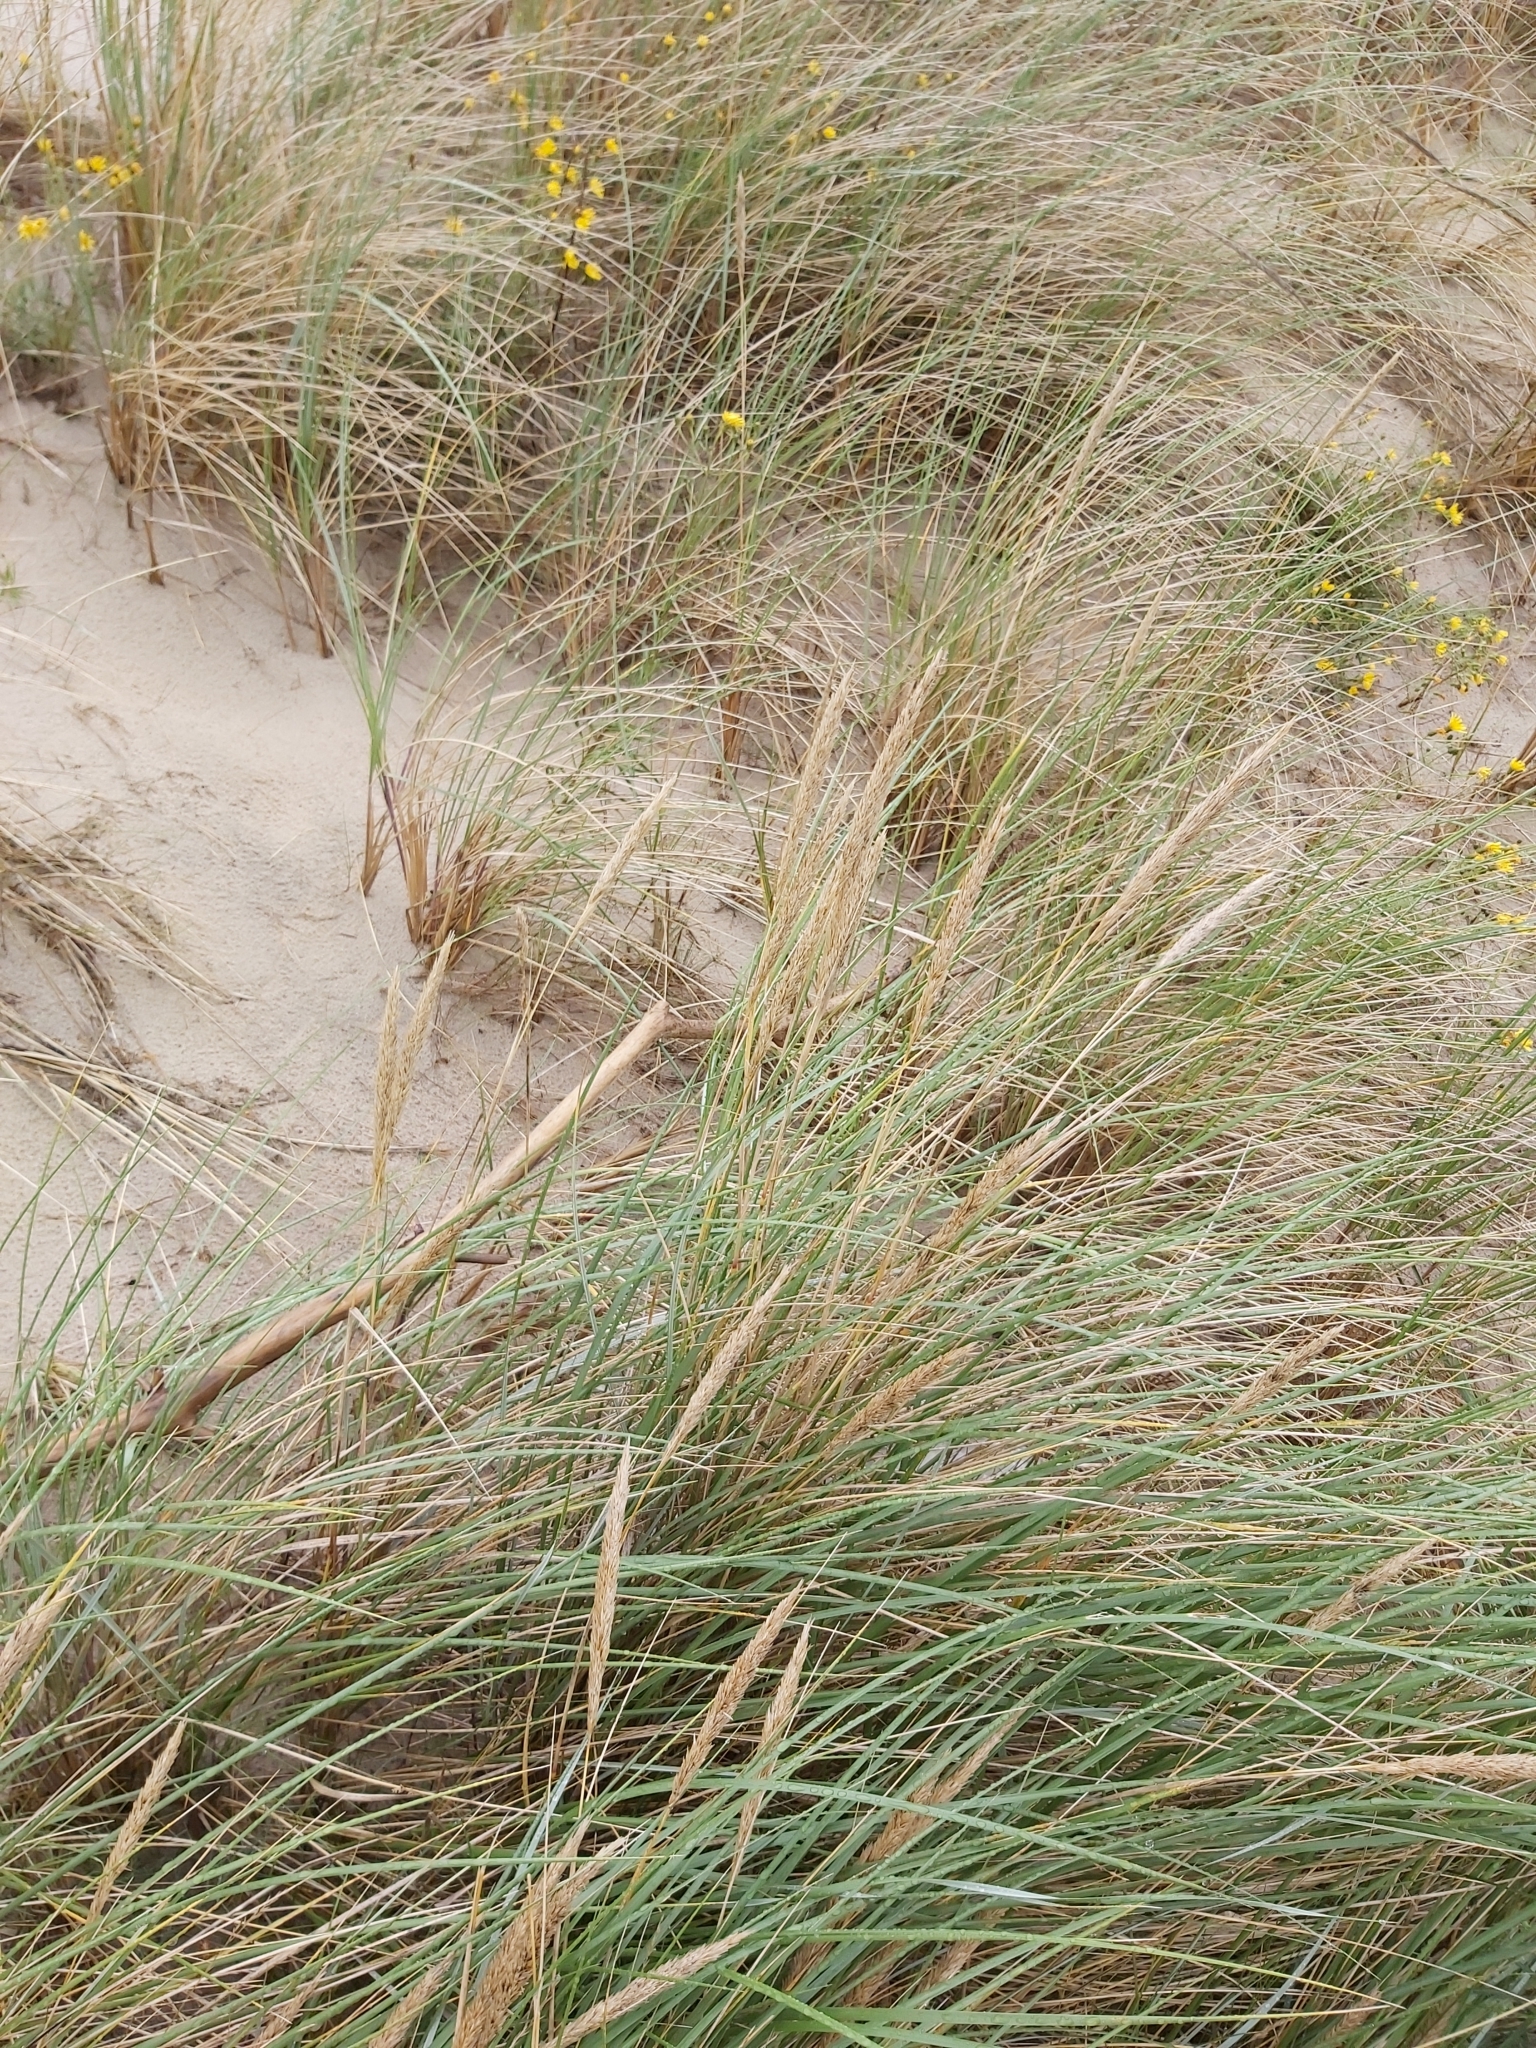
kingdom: Plantae
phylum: Tracheophyta
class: Liliopsida
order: Poales
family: Poaceae
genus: Calamagrostis
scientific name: Calamagrostis arenaria
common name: European beachgrass
